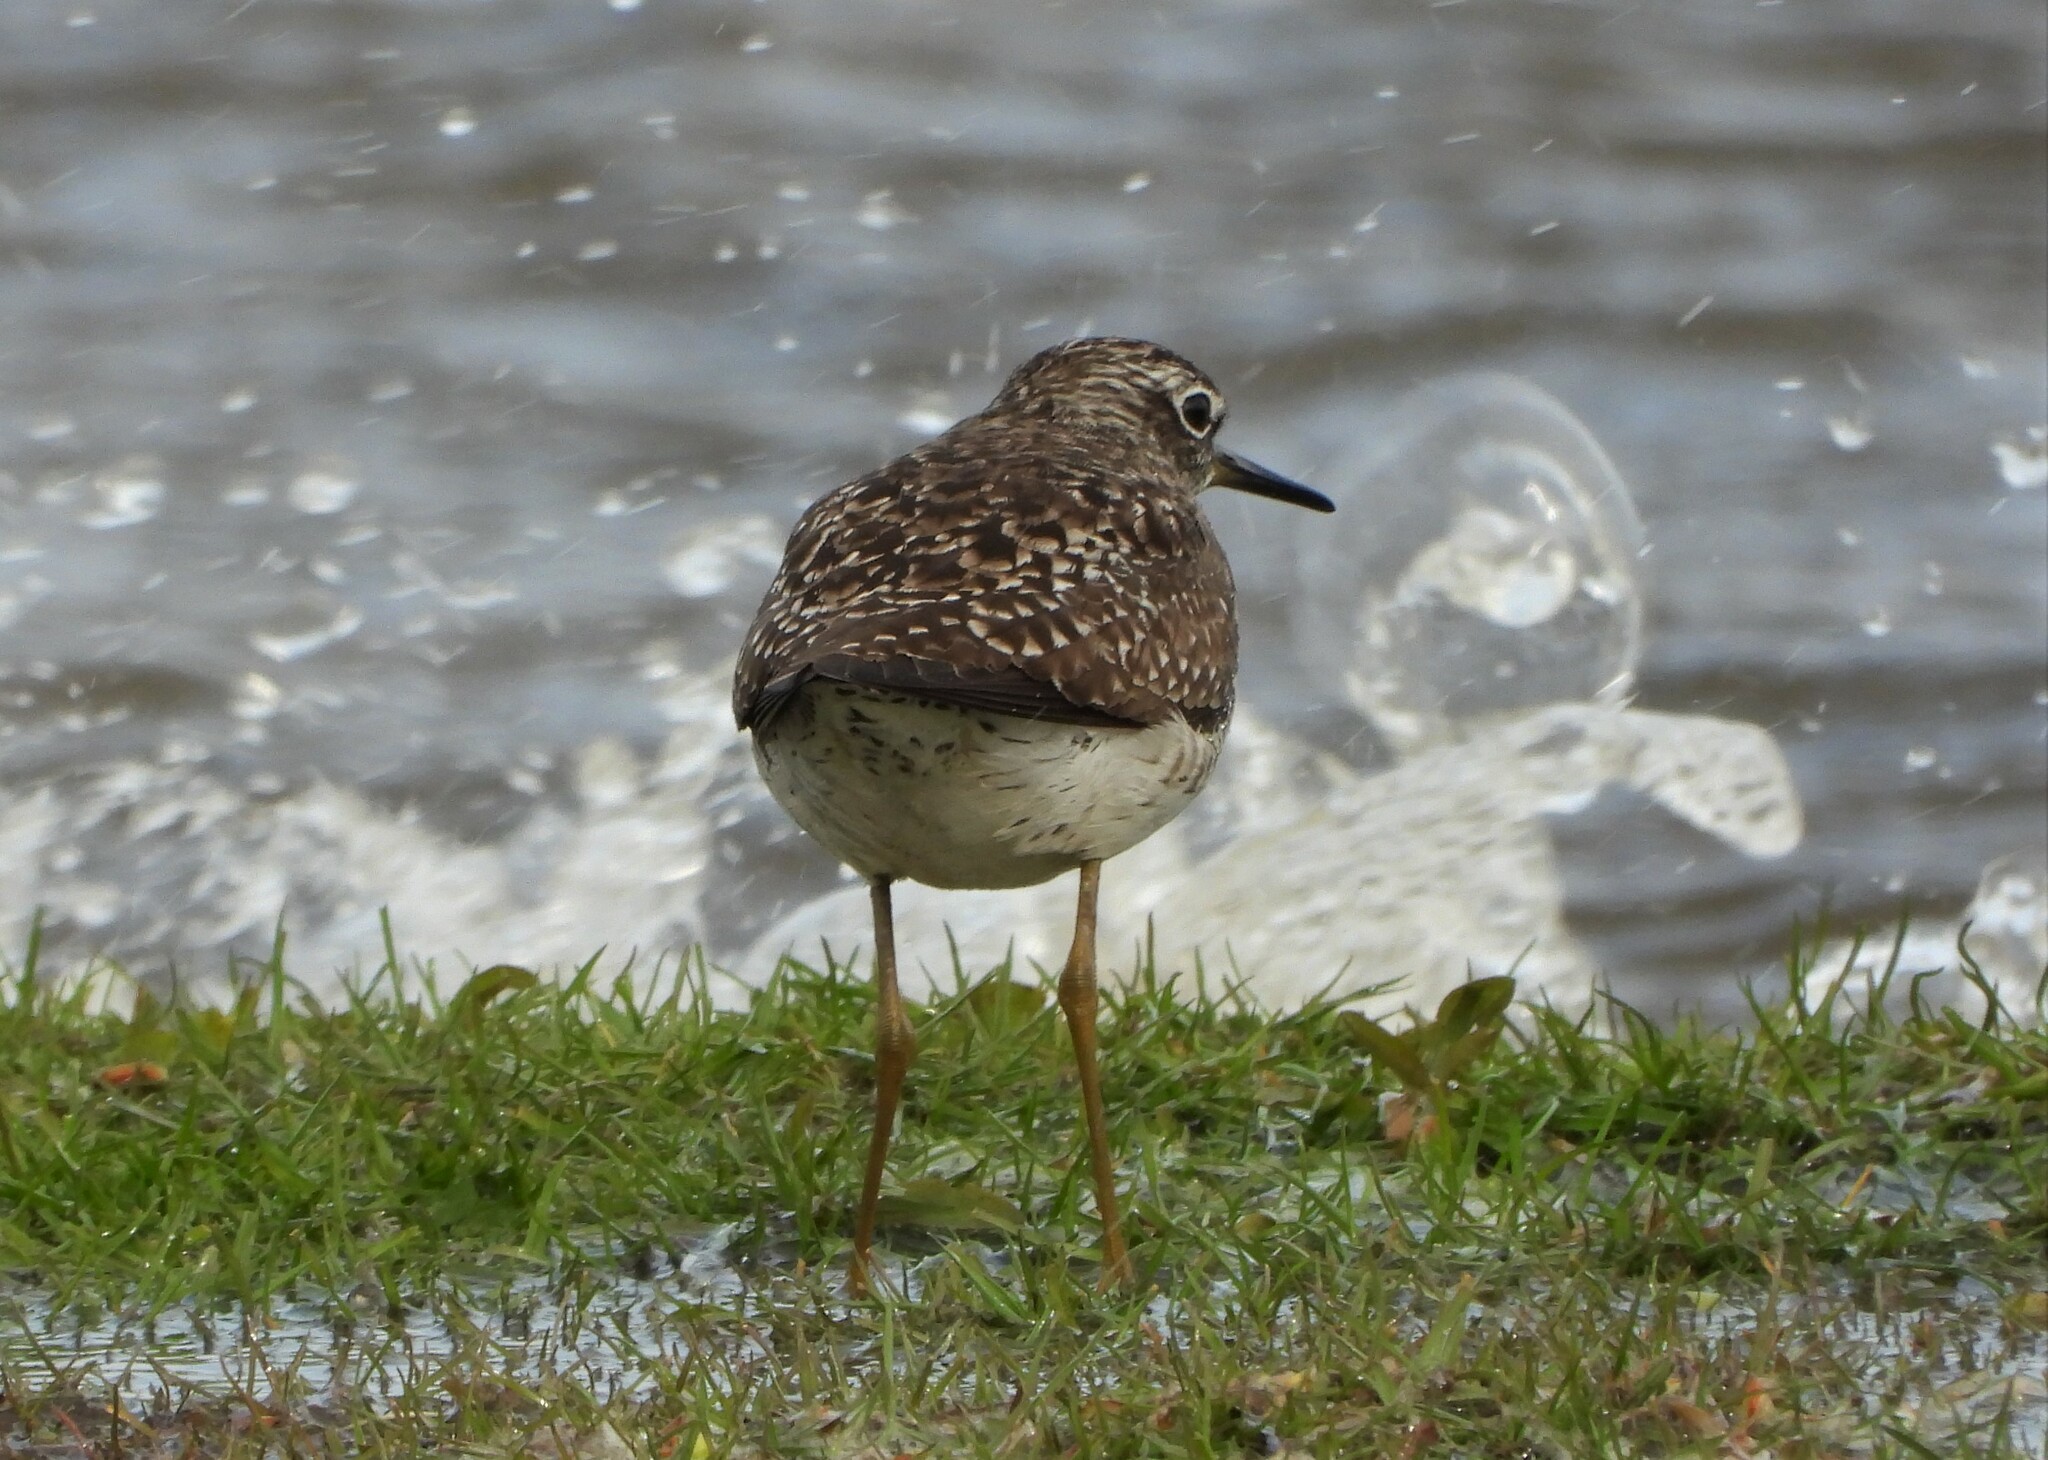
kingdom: Animalia
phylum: Chordata
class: Aves
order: Charadriiformes
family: Scolopacidae
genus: Tringa
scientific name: Tringa glareola
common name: Wood sandpiper
